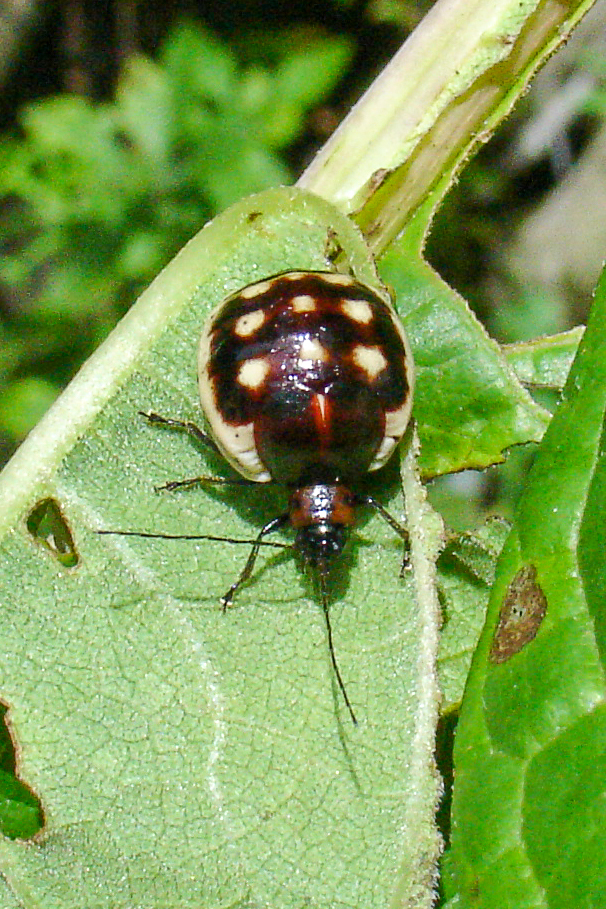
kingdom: Animalia
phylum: Arthropoda
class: Insecta
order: Coleoptera
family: Chrysomelidae
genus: Metacycla
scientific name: Metacycla
